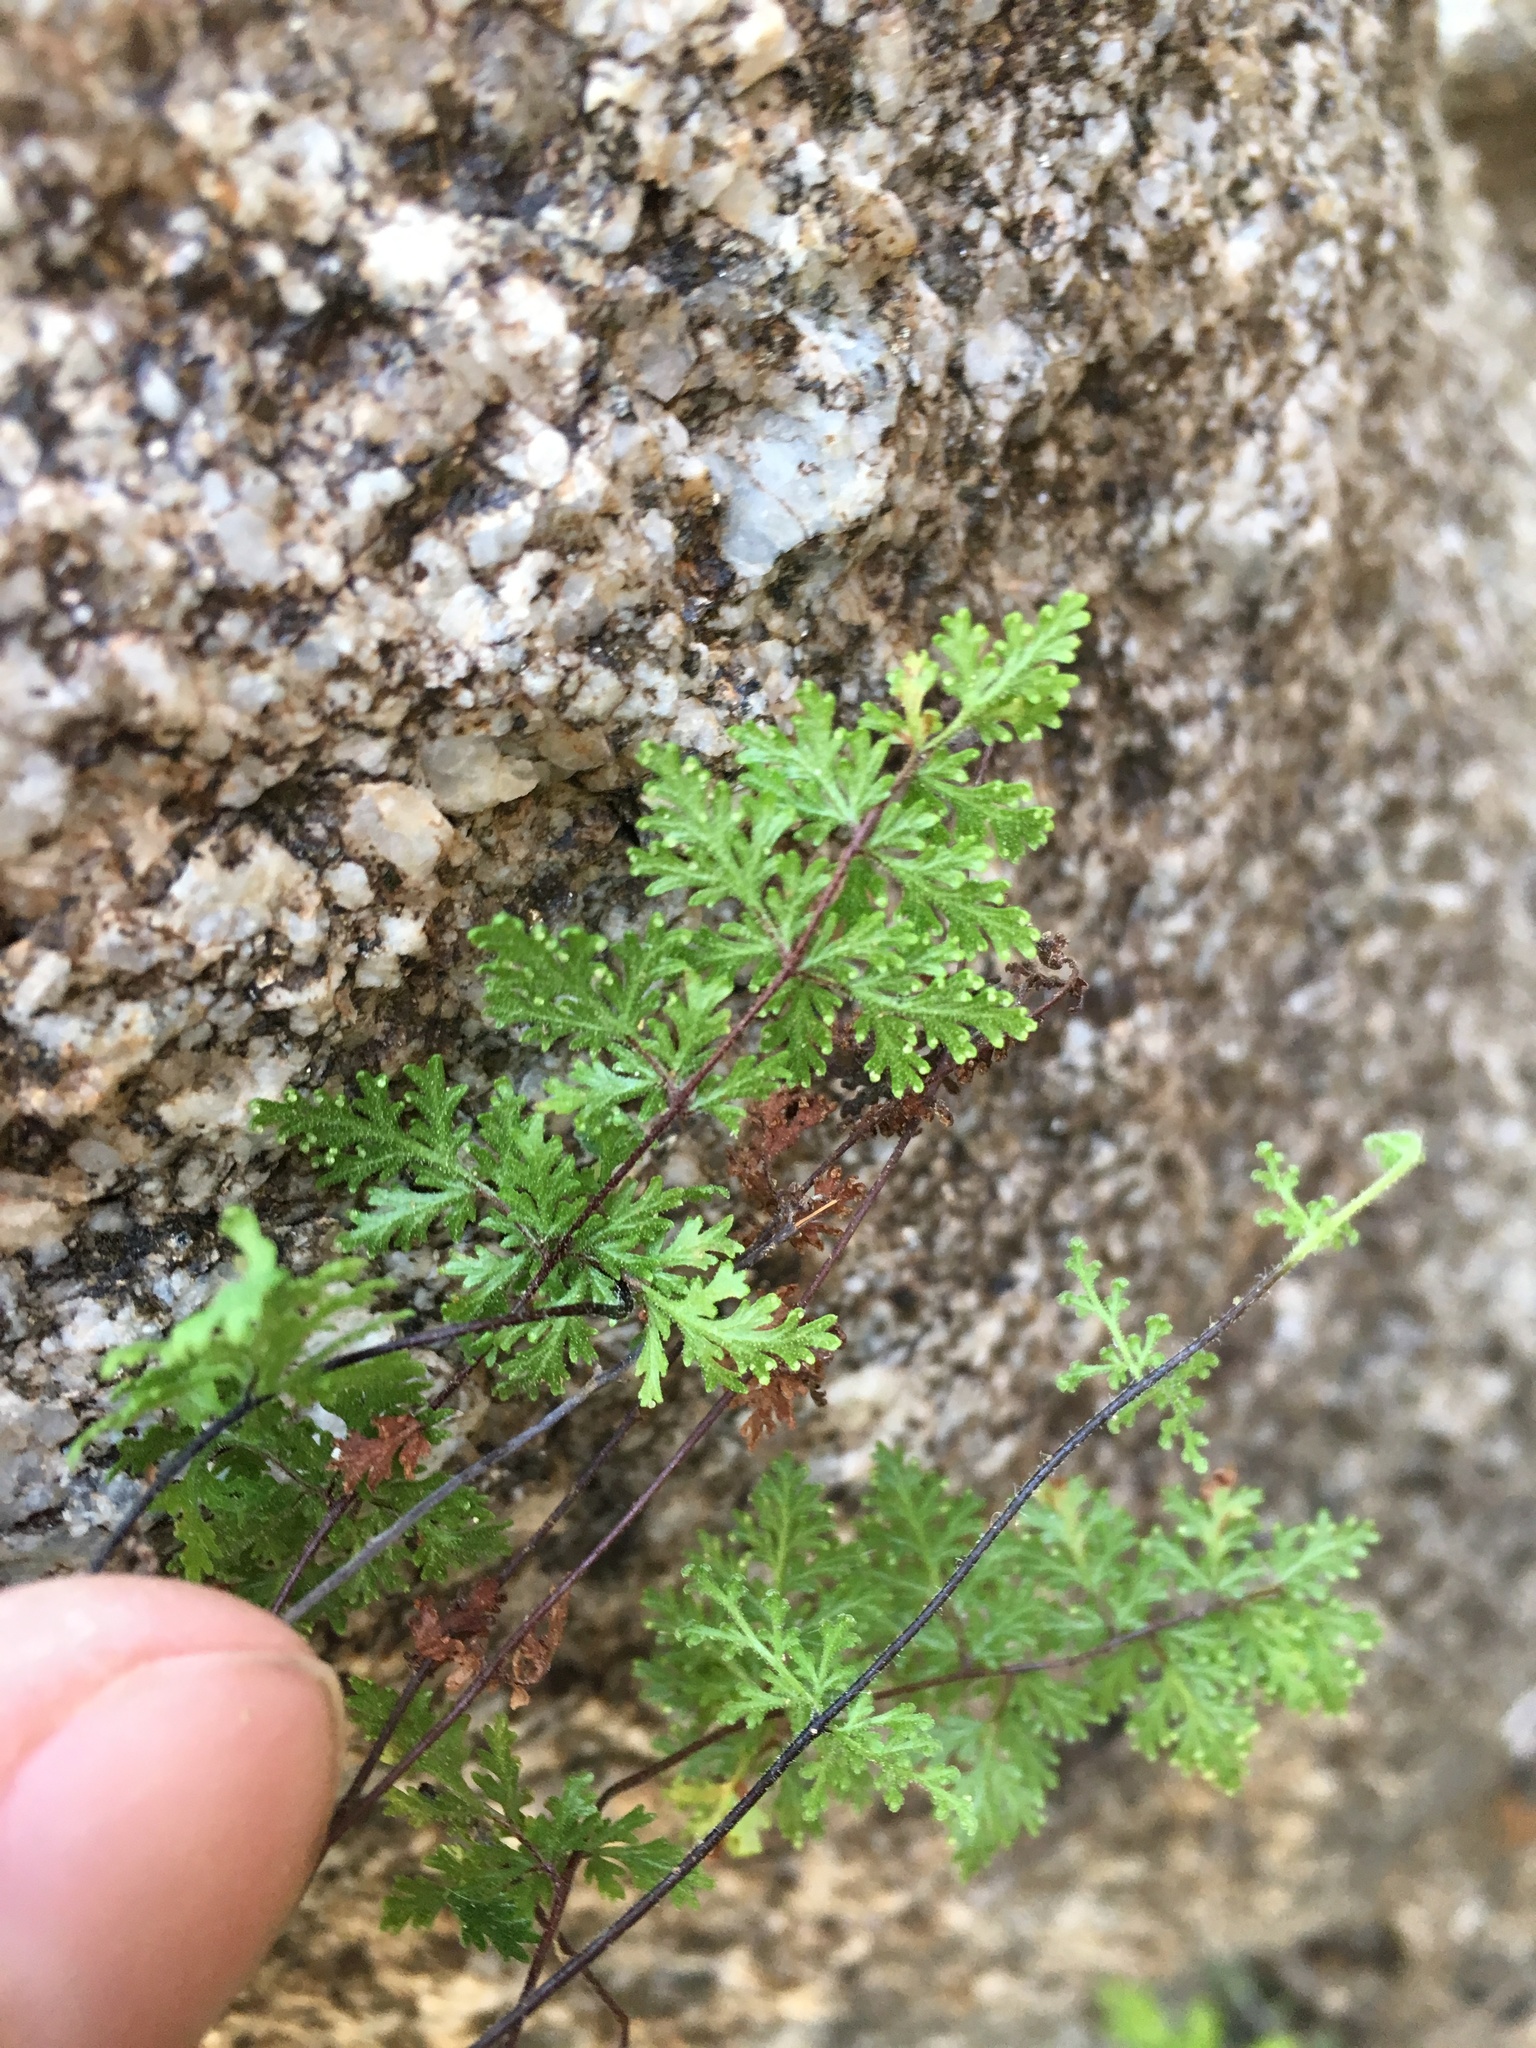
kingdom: Plantae
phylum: Tracheophyta
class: Polypodiopsida
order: Polypodiales
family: Pteridaceae
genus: Myriopteris
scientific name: Myriopteris viscida
